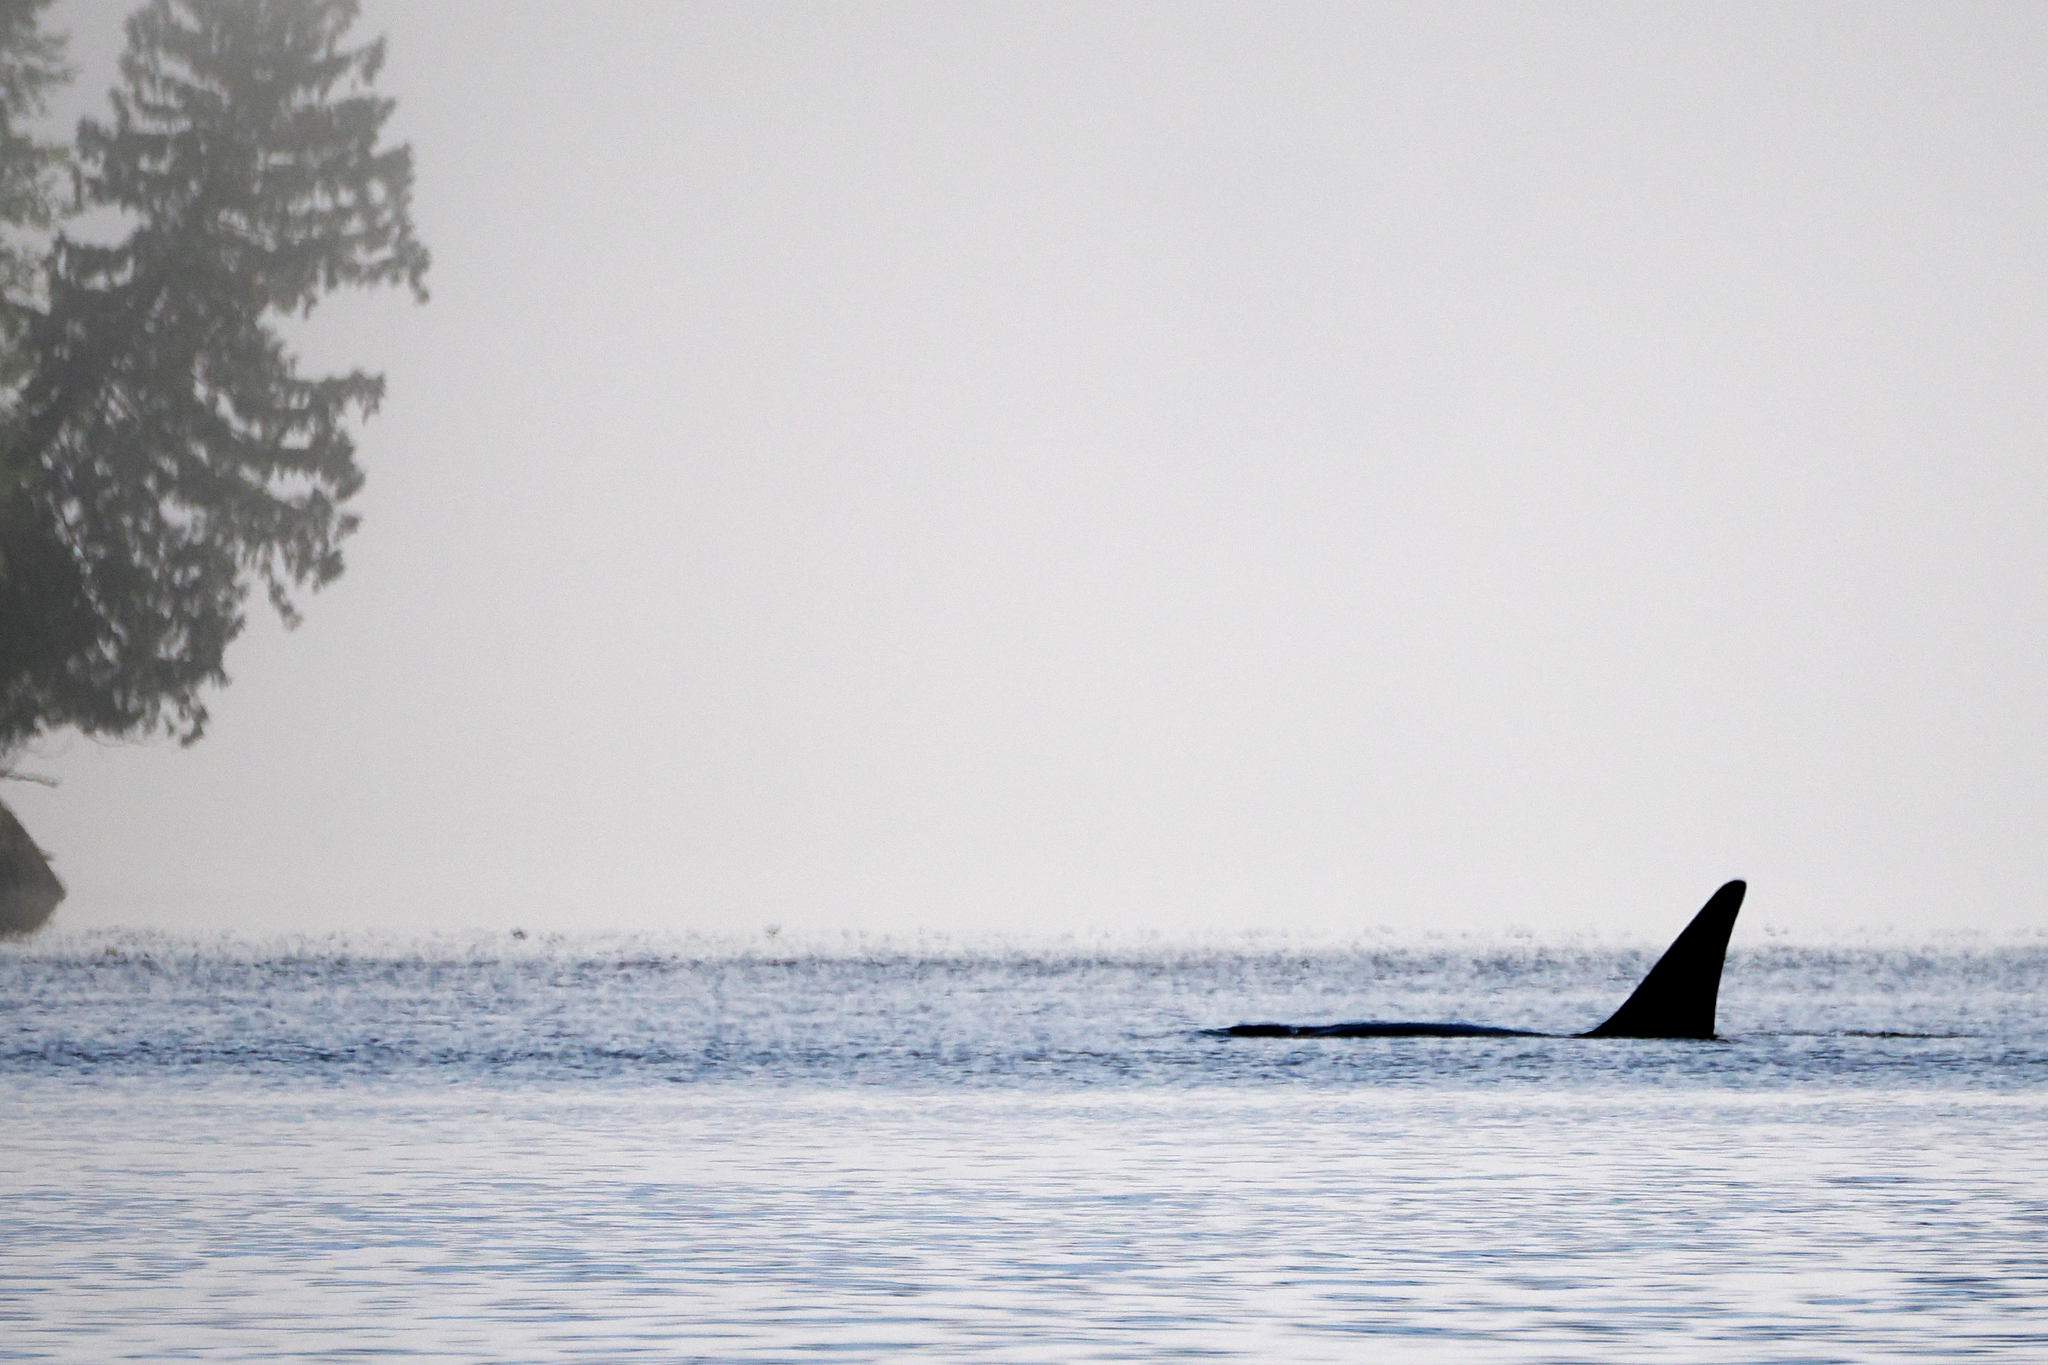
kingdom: Animalia
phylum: Chordata
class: Mammalia
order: Cetacea
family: Delphinidae
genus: Orcinus
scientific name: Orcinus orca
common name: Killer whale
